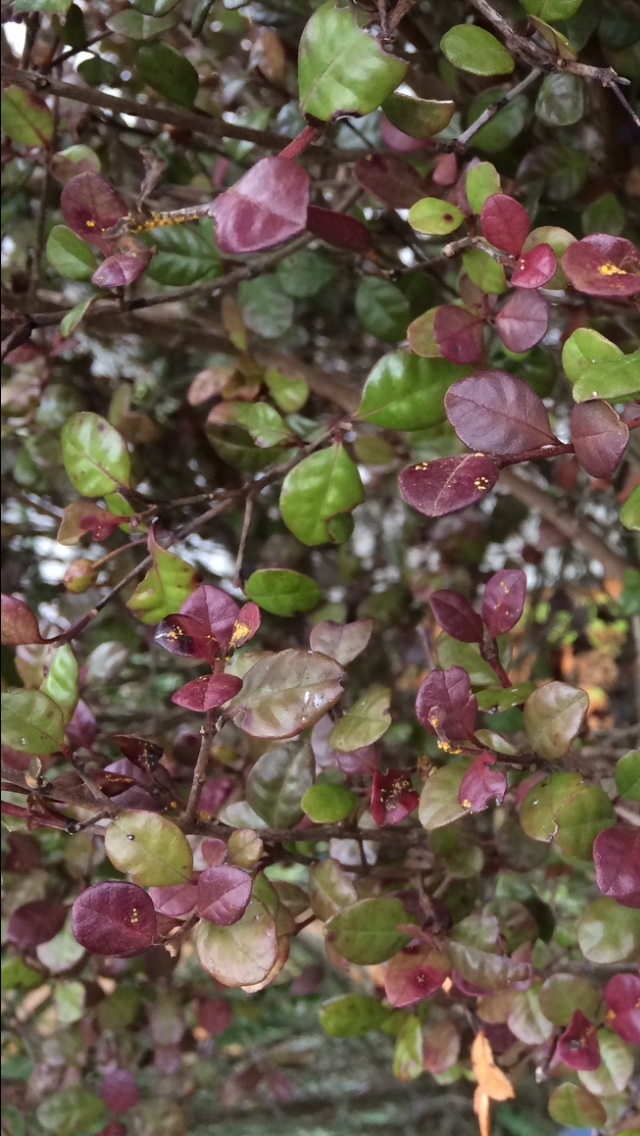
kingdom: Fungi
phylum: Basidiomycota
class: Pucciniomycetes
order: Pucciniales
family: Sphaerophragmiaceae
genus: Austropuccinia
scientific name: Austropuccinia psidii
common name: Myrtle rust
